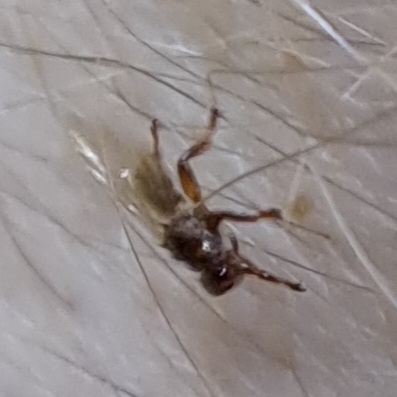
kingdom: Animalia
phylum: Arthropoda
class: Insecta
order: Diptera
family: Hippoboscidae
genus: Lipoptena
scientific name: Lipoptena cervi
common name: Deer ked
